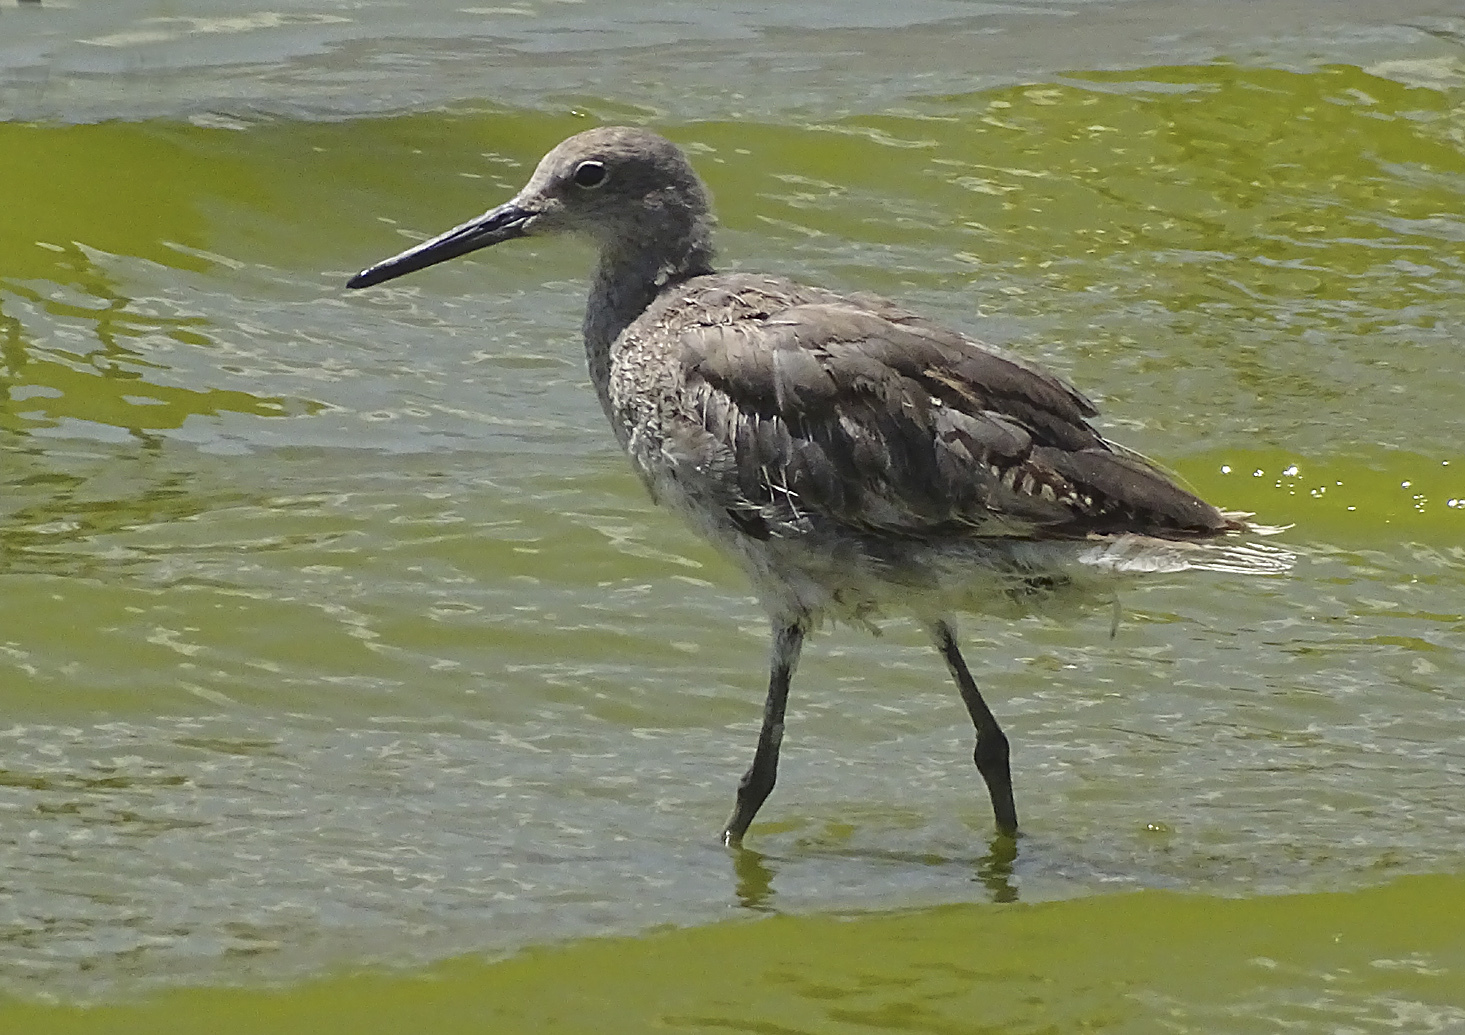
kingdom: Animalia
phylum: Chordata
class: Aves
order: Charadriiformes
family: Scolopacidae
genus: Tringa
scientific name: Tringa semipalmata
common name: Willet
